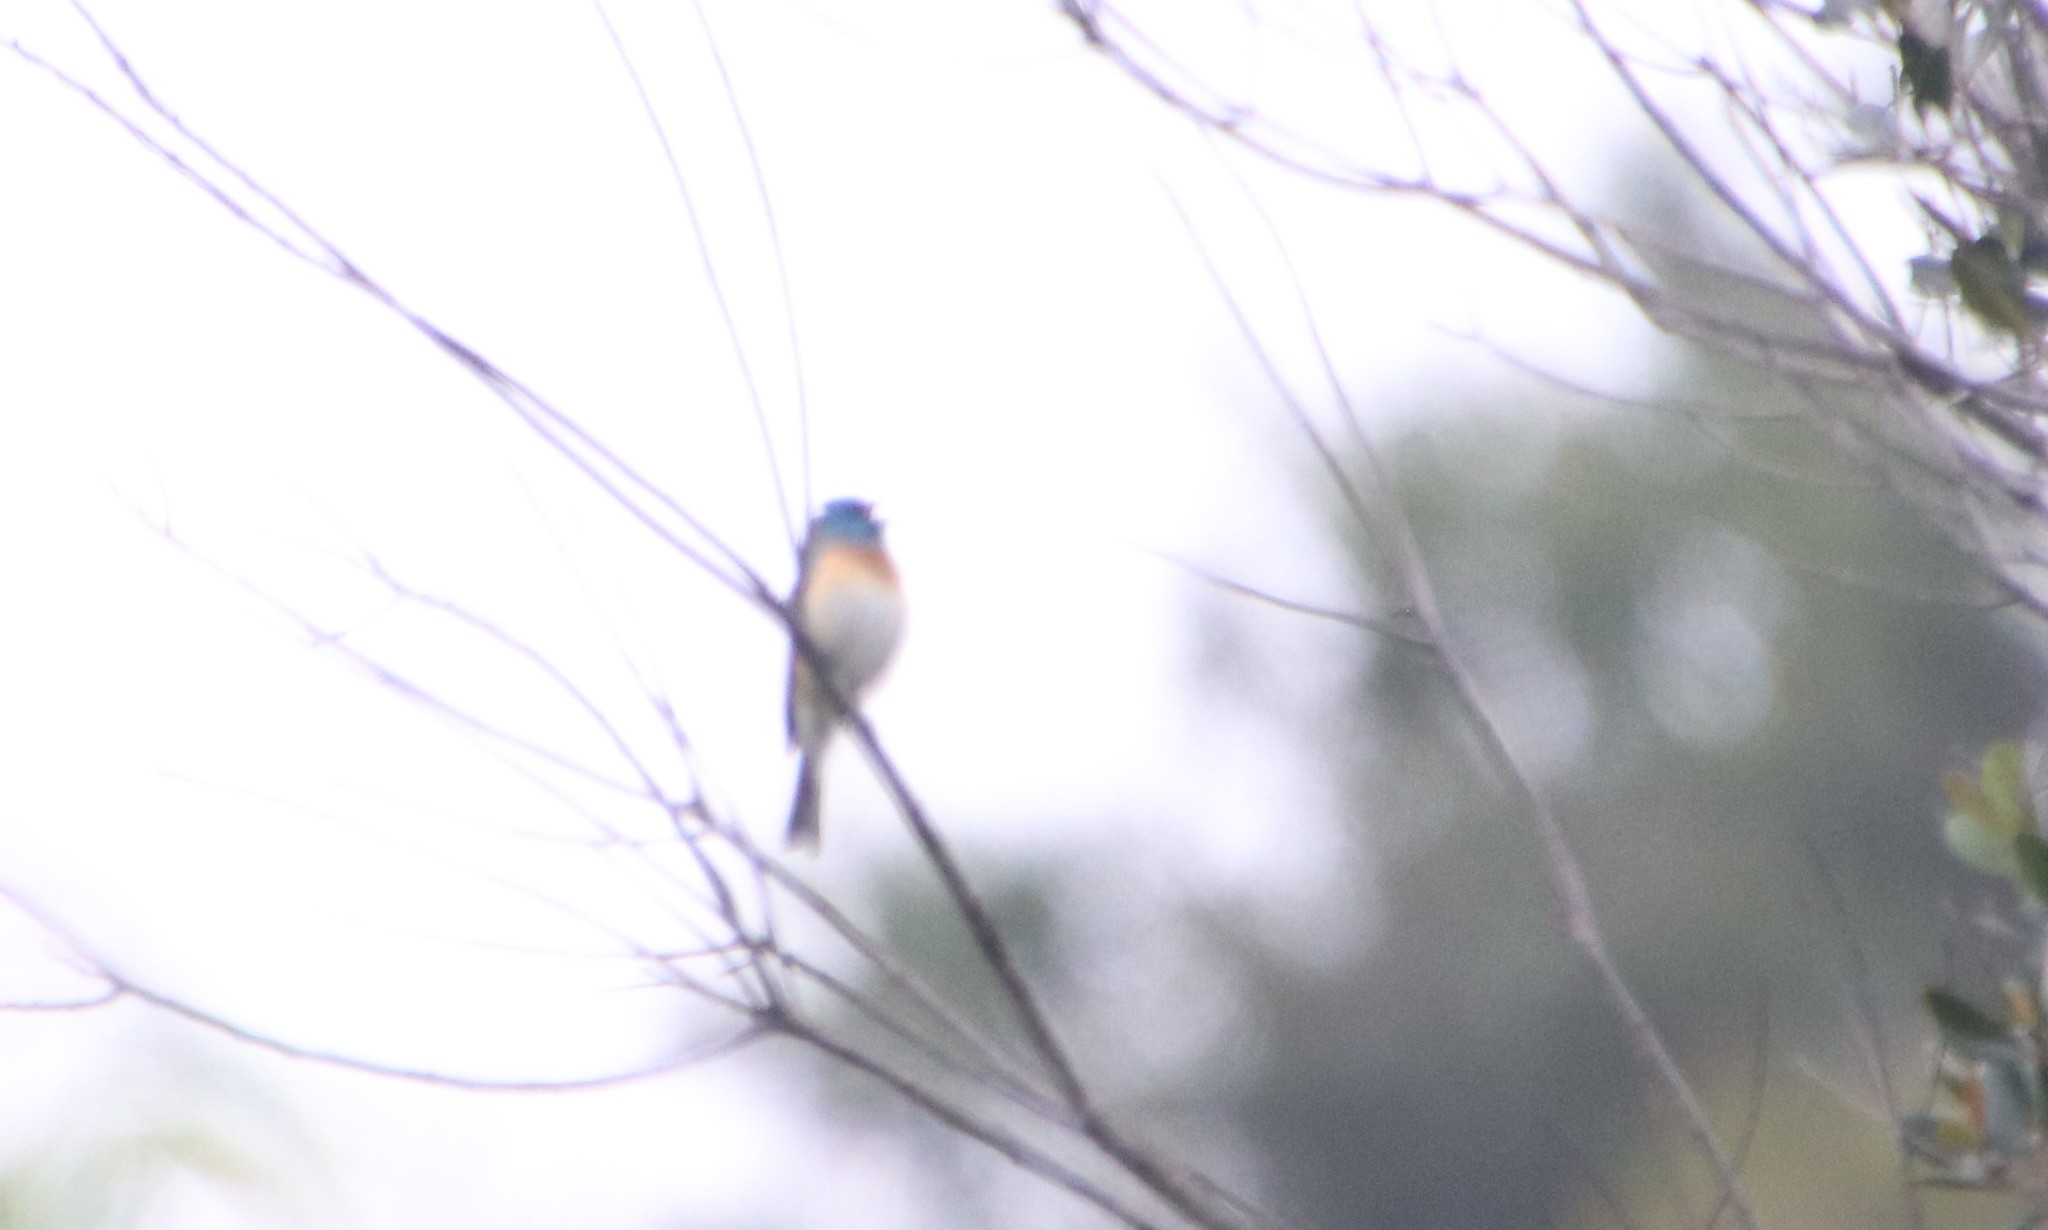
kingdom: Animalia
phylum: Chordata
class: Aves
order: Passeriformes
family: Cardinalidae
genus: Passerina
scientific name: Passerina amoena
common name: Lazuli bunting
